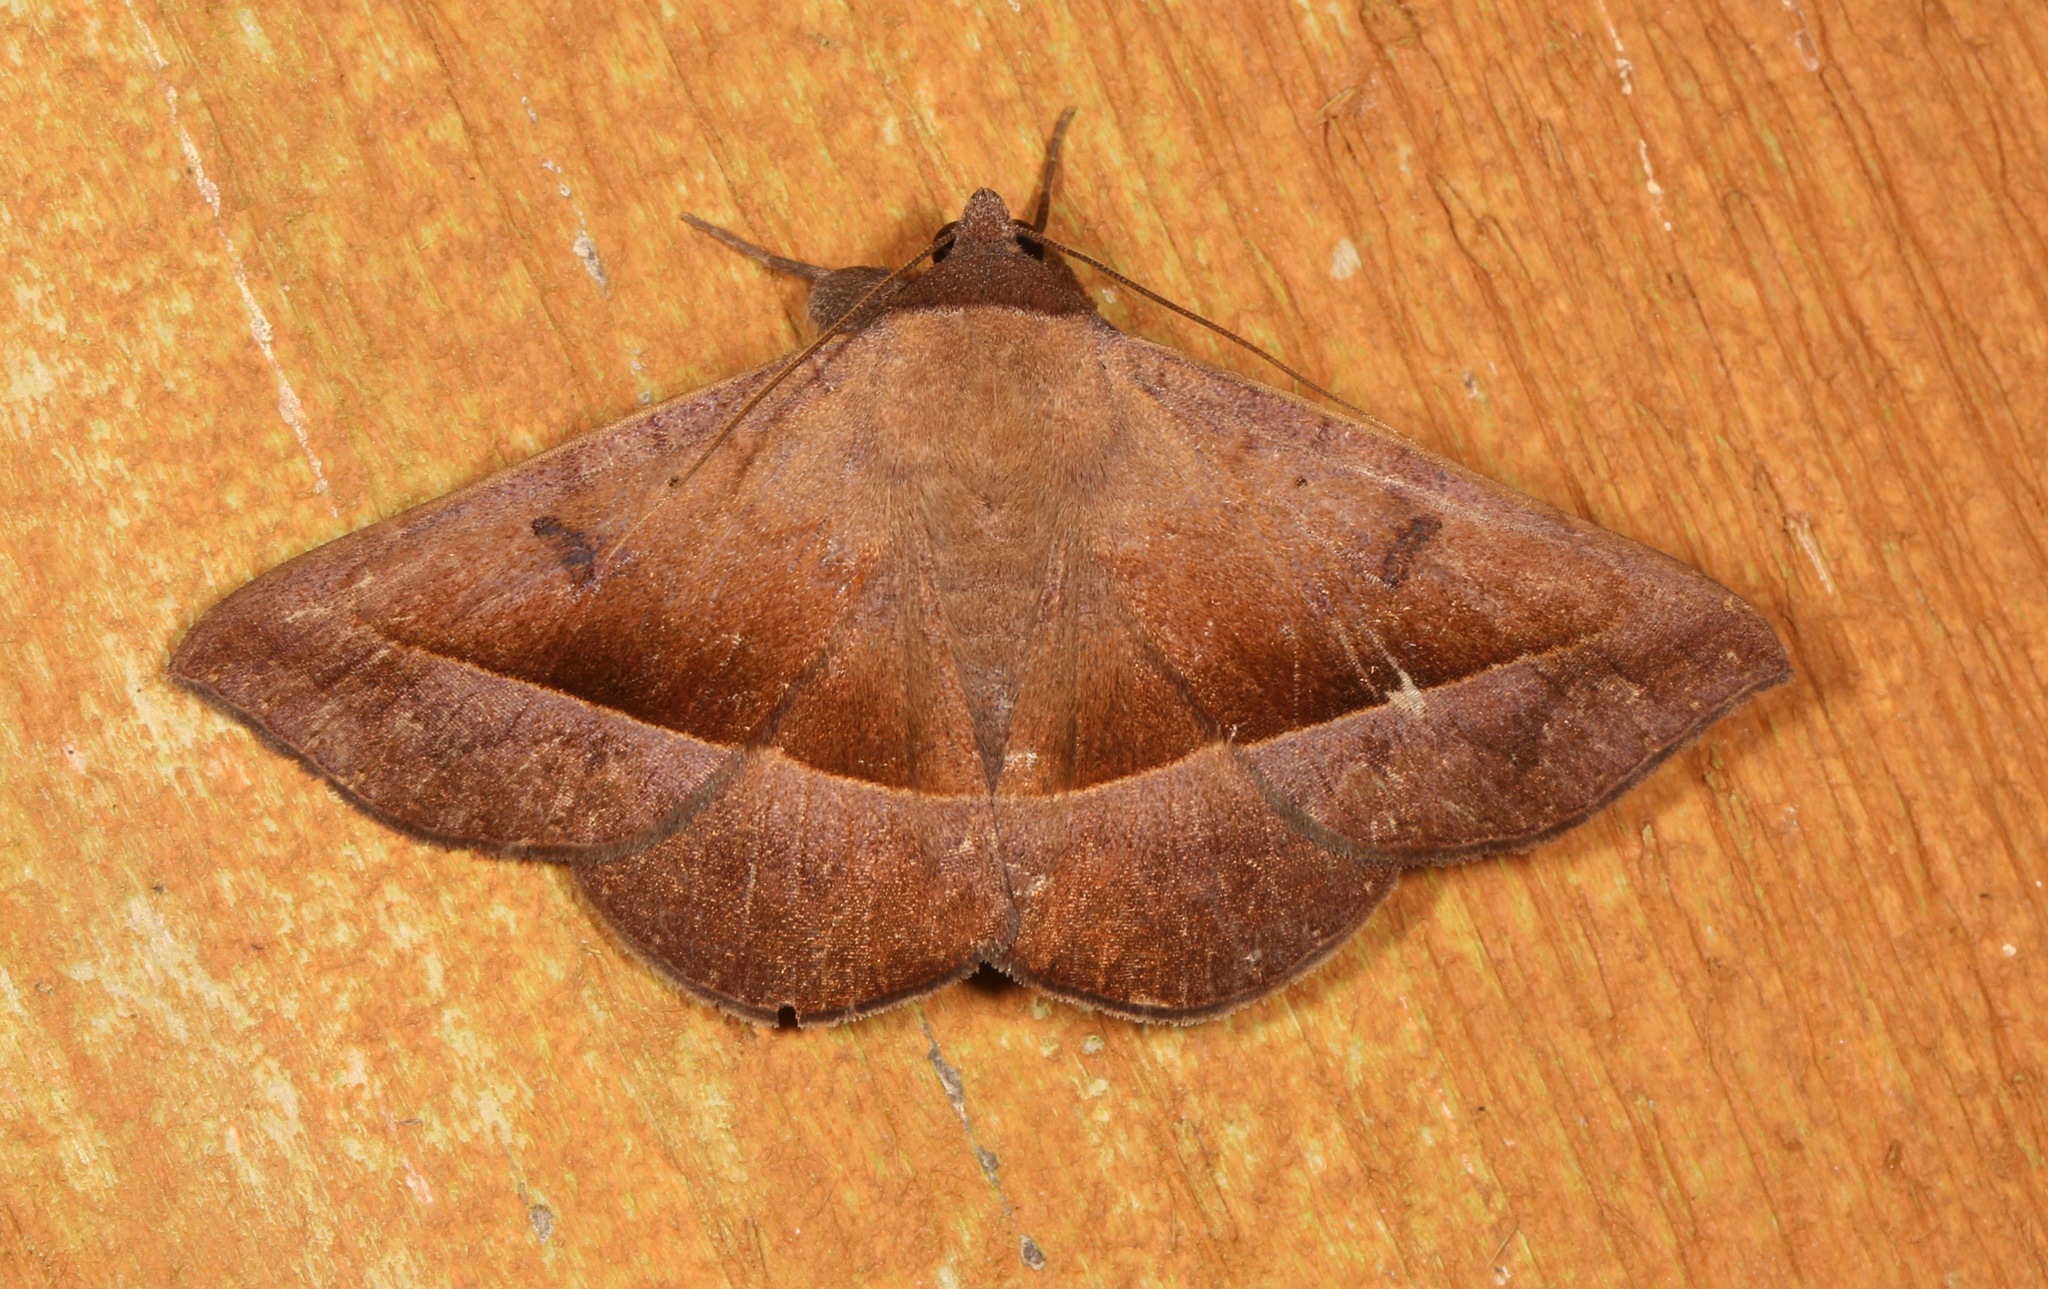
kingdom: Animalia
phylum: Arthropoda
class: Insecta
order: Lepidoptera
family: Erebidae
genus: Epidromia
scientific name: Epidromia rotundata
